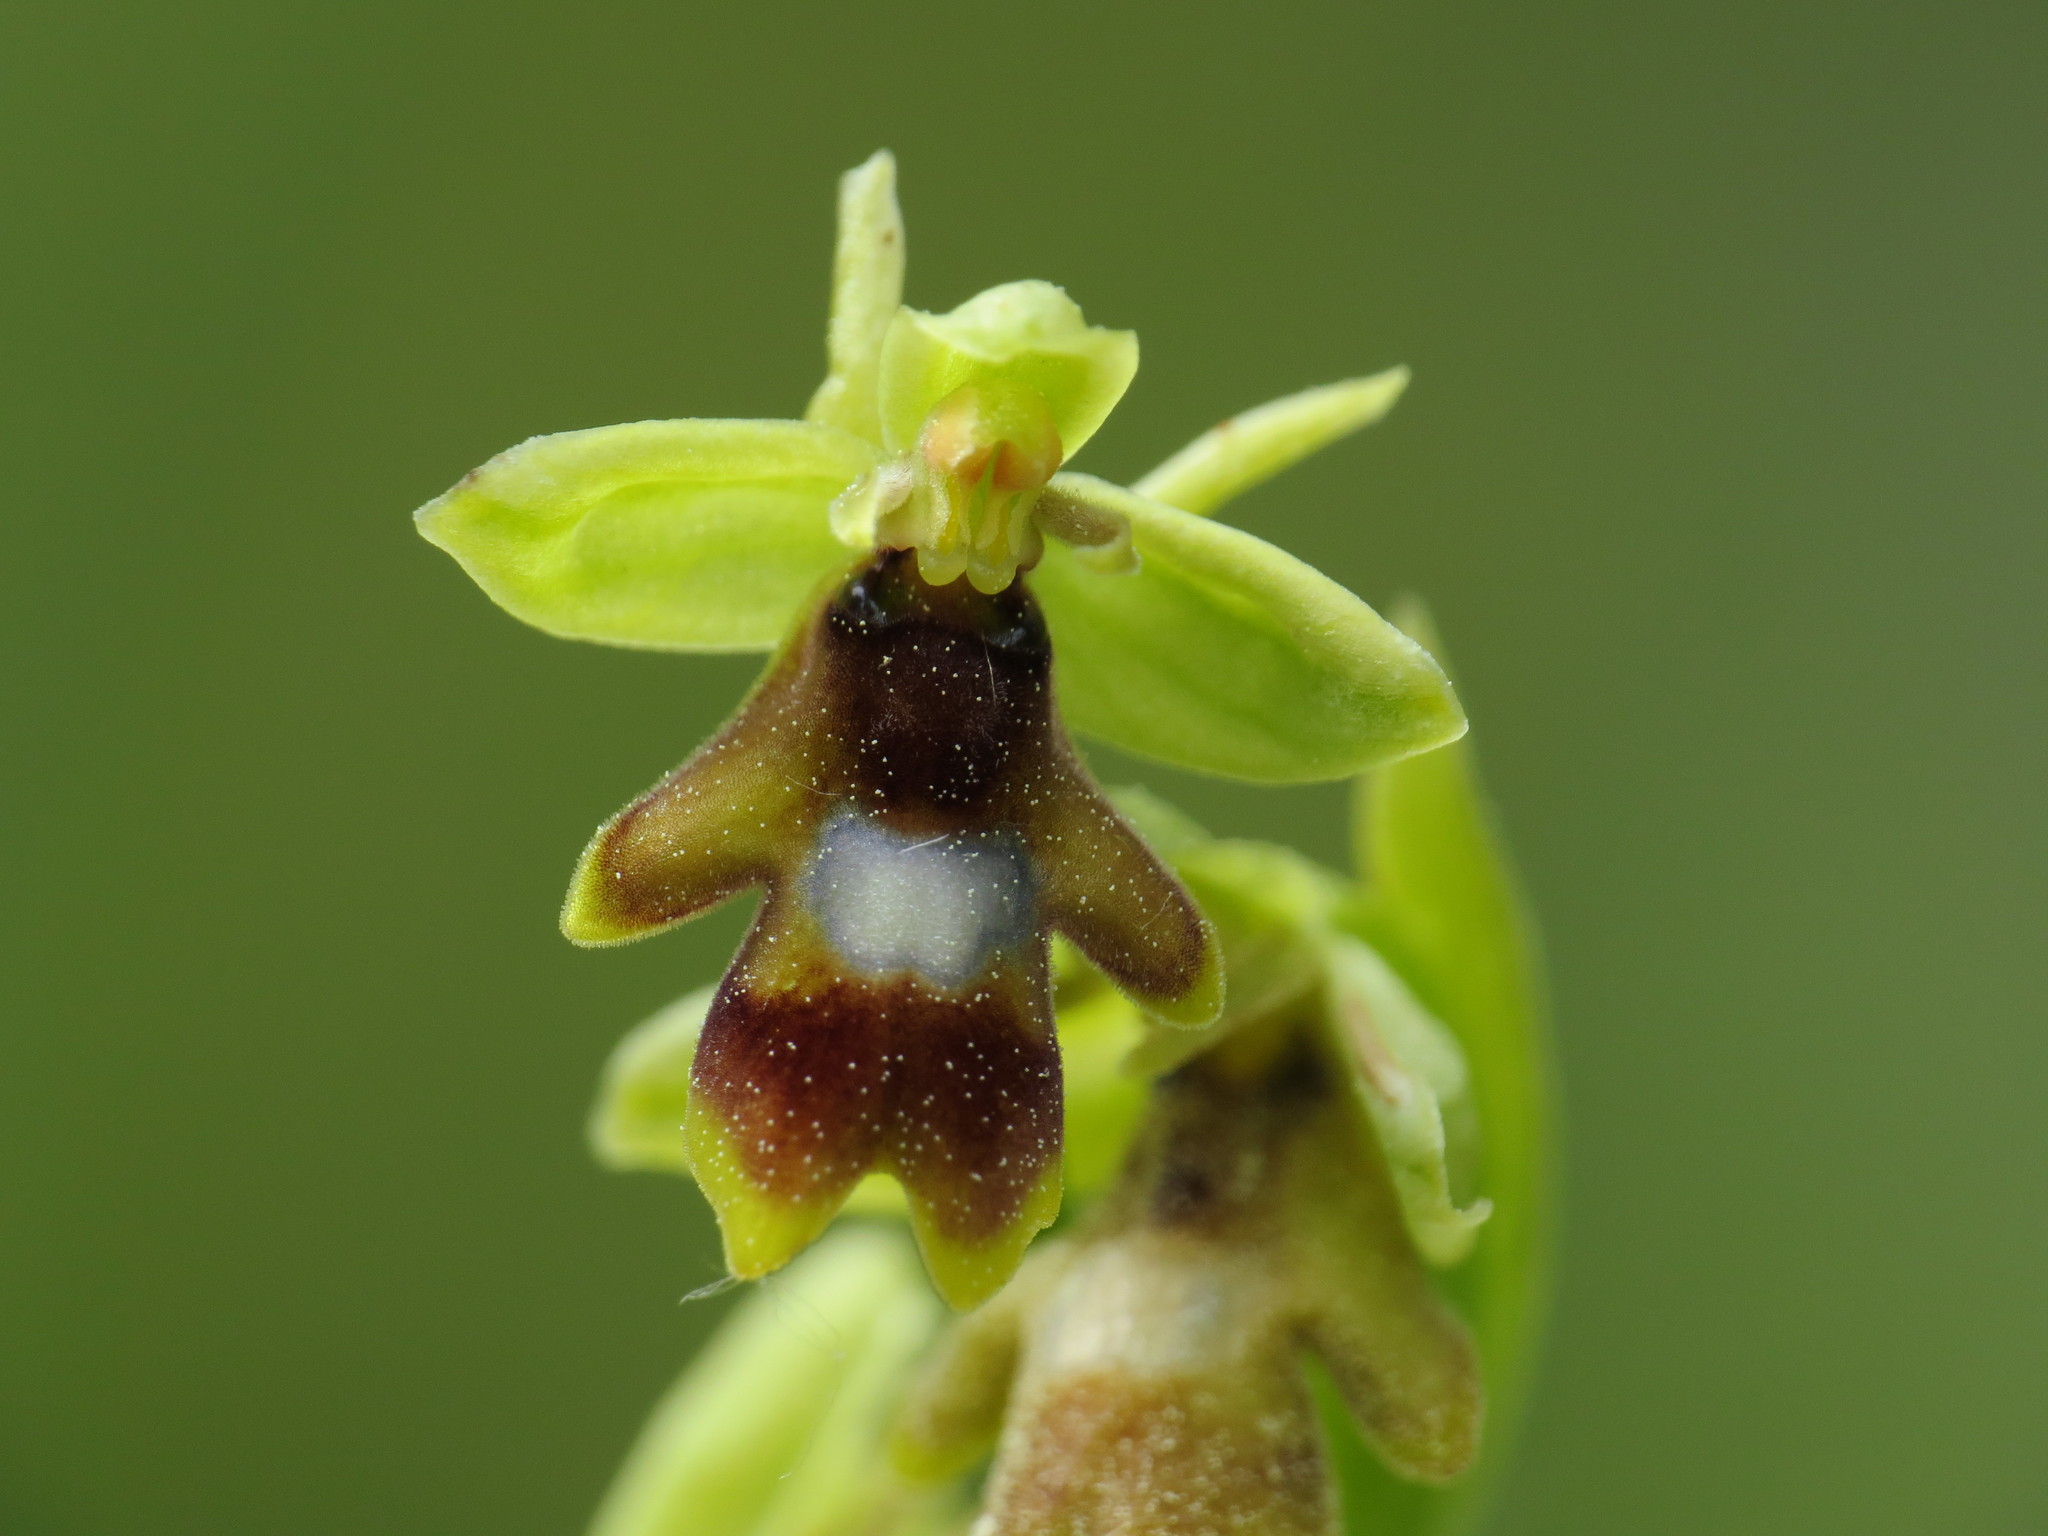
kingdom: Plantae
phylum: Tracheophyta
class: Liliopsida
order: Asparagales
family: Orchidaceae
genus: Ophrys
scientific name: Ophrys insectifera
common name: Fly orchid
